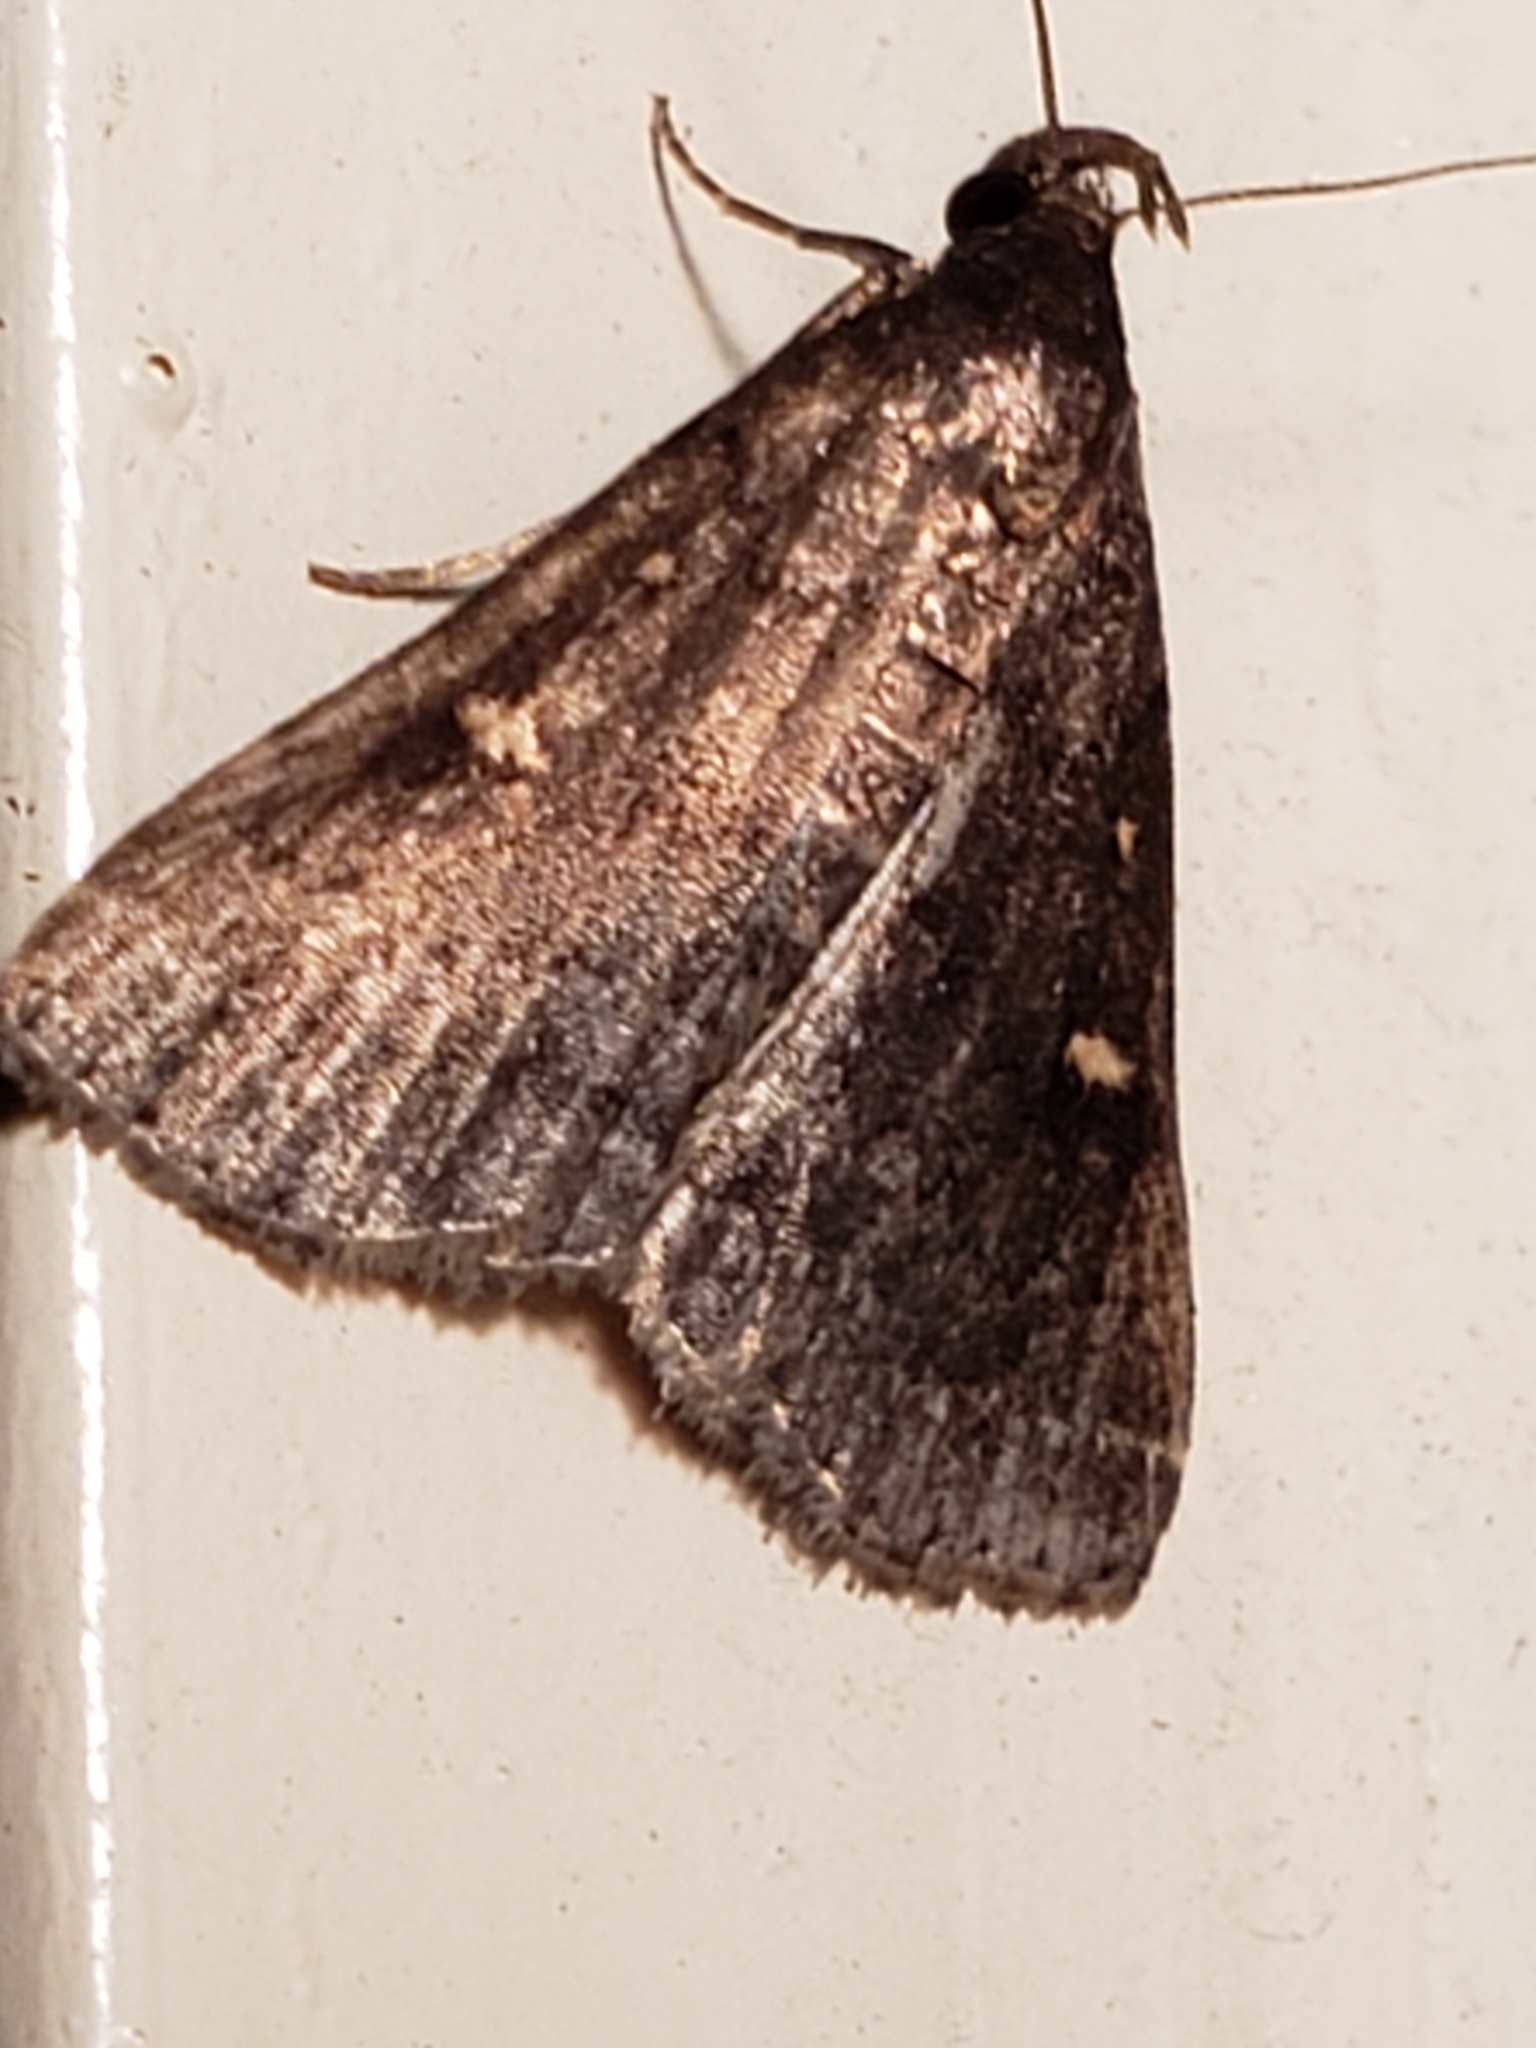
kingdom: Animalia
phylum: Arthropoda
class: Insecta
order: Lepidoptera
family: Erebidae
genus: Tetanolita
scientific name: Tetanolita mynesalis
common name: Smoky tetanolita moth
